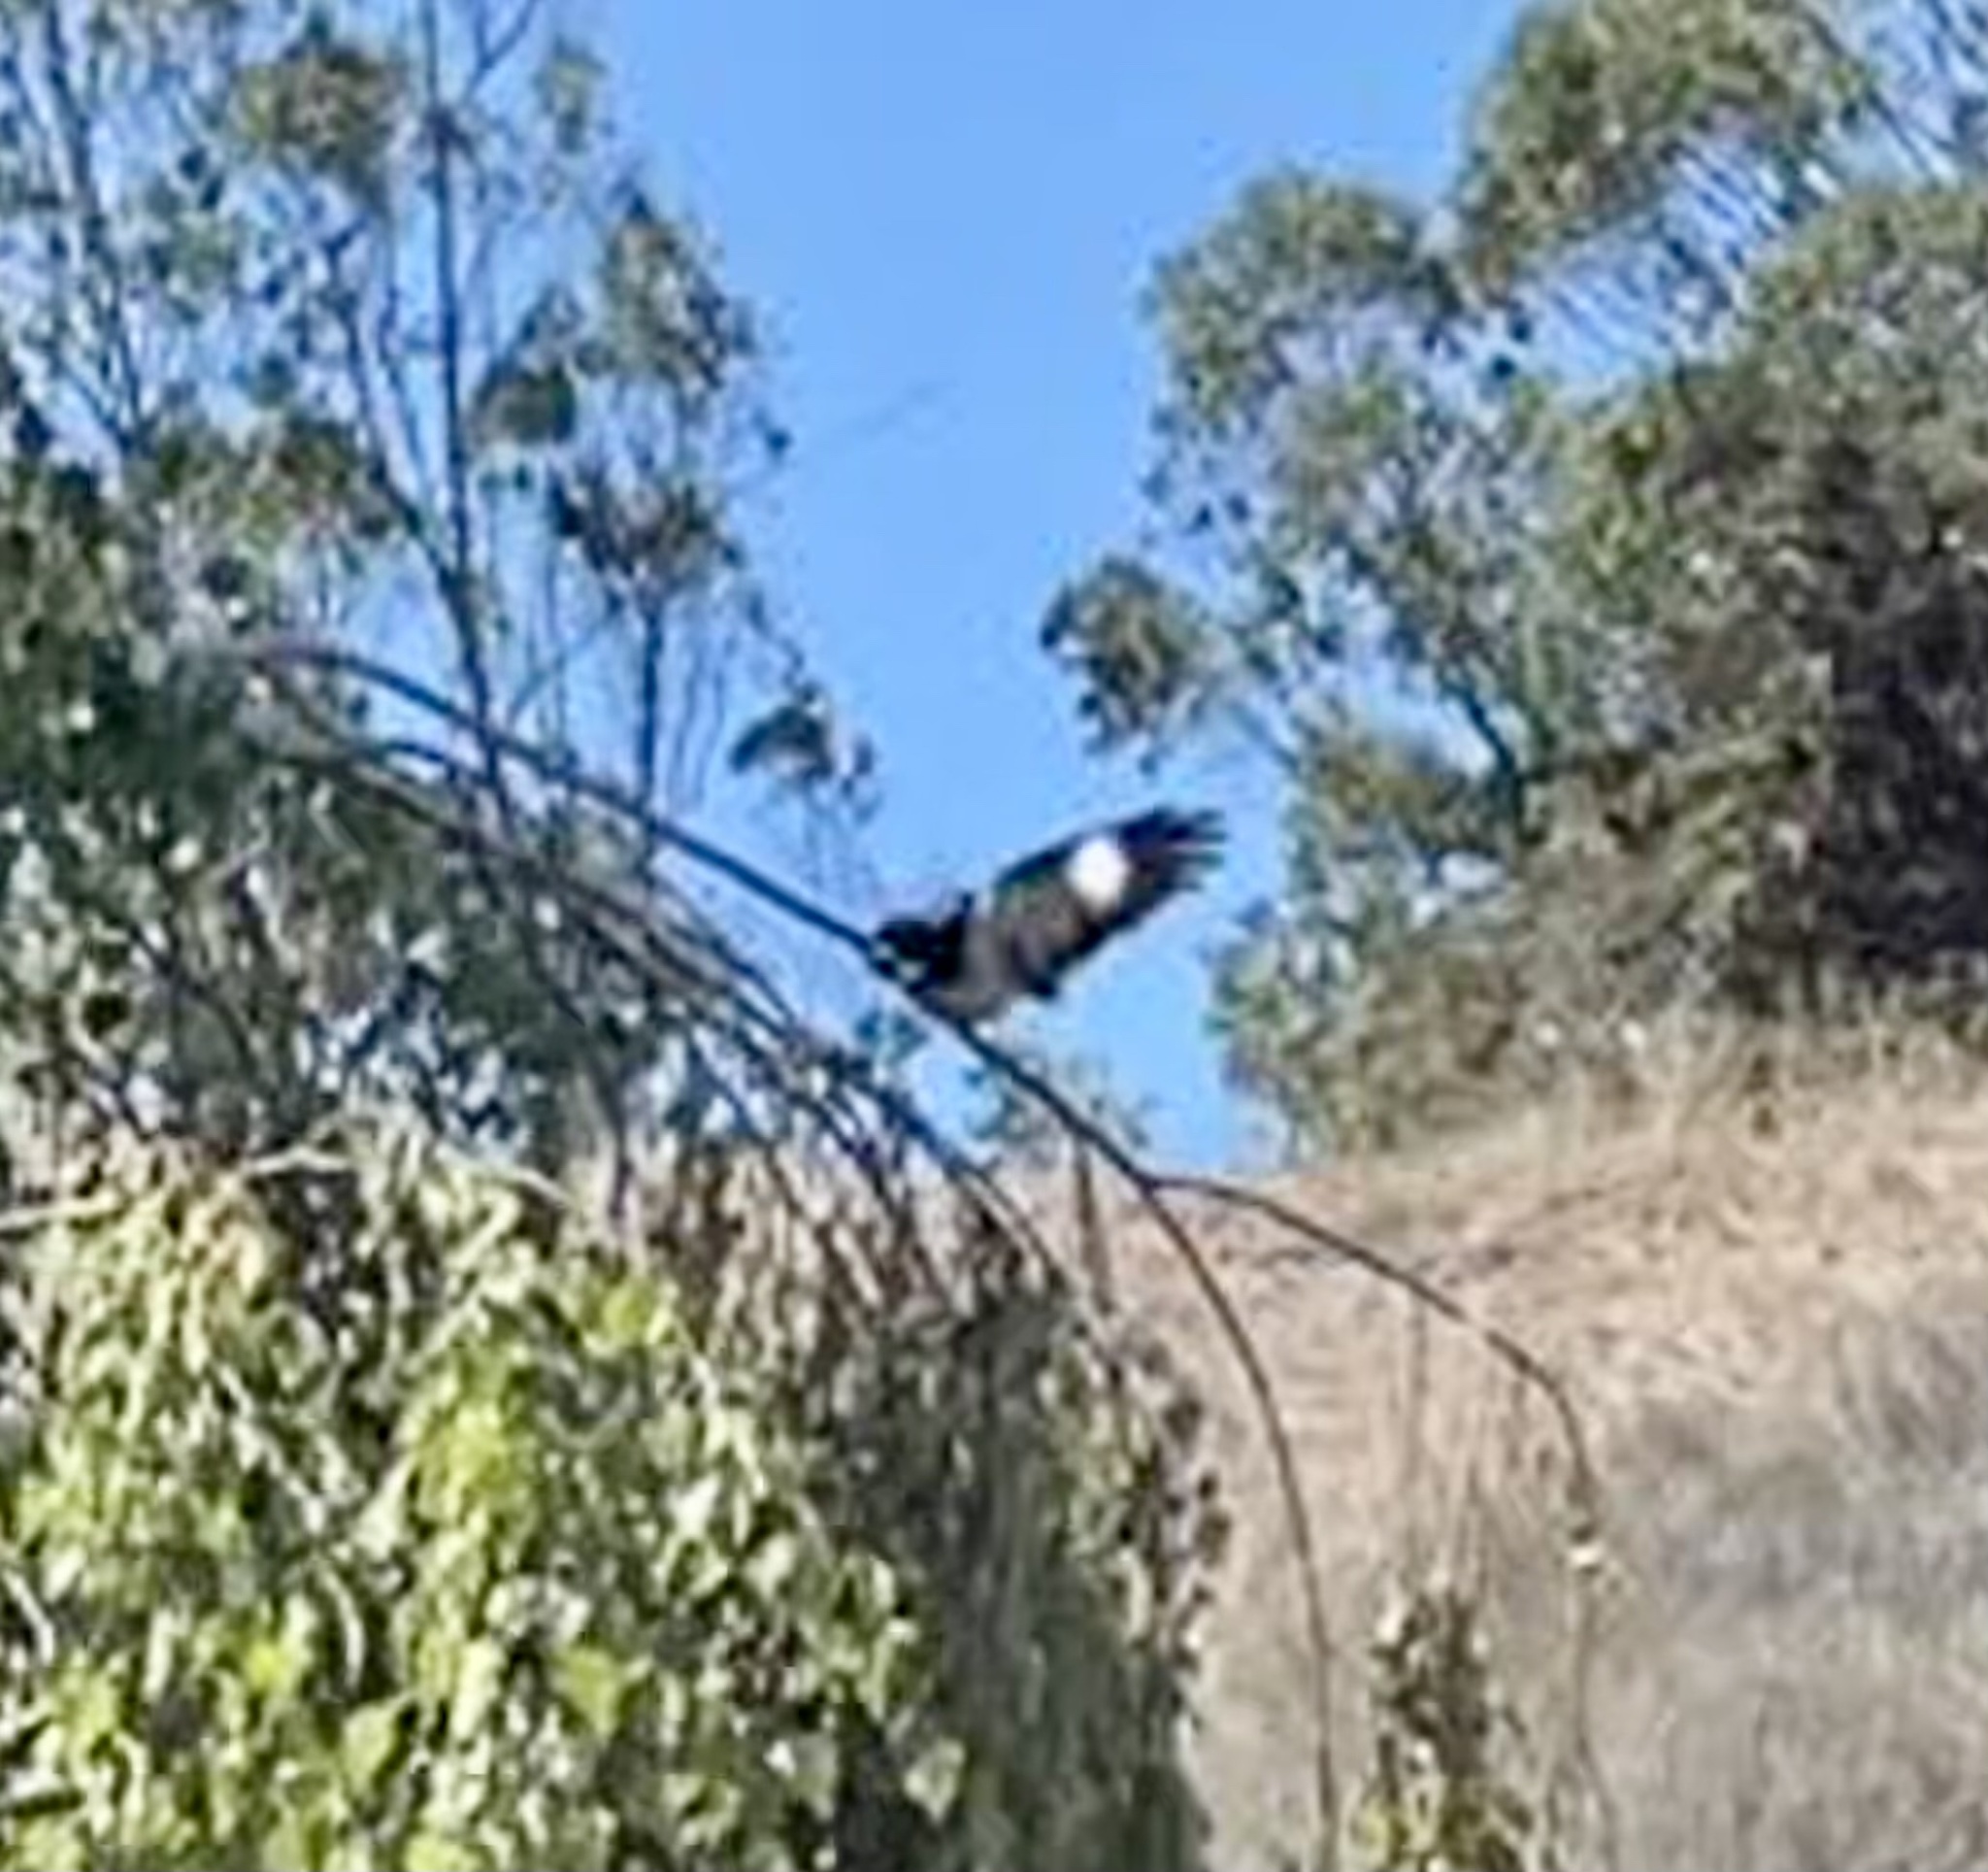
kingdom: Animalia
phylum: Chordata
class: Aves
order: Piciformes
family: Picidae
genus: Melanerpes
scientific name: Melanerpes formicivorus
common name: Acorn woodpecker
